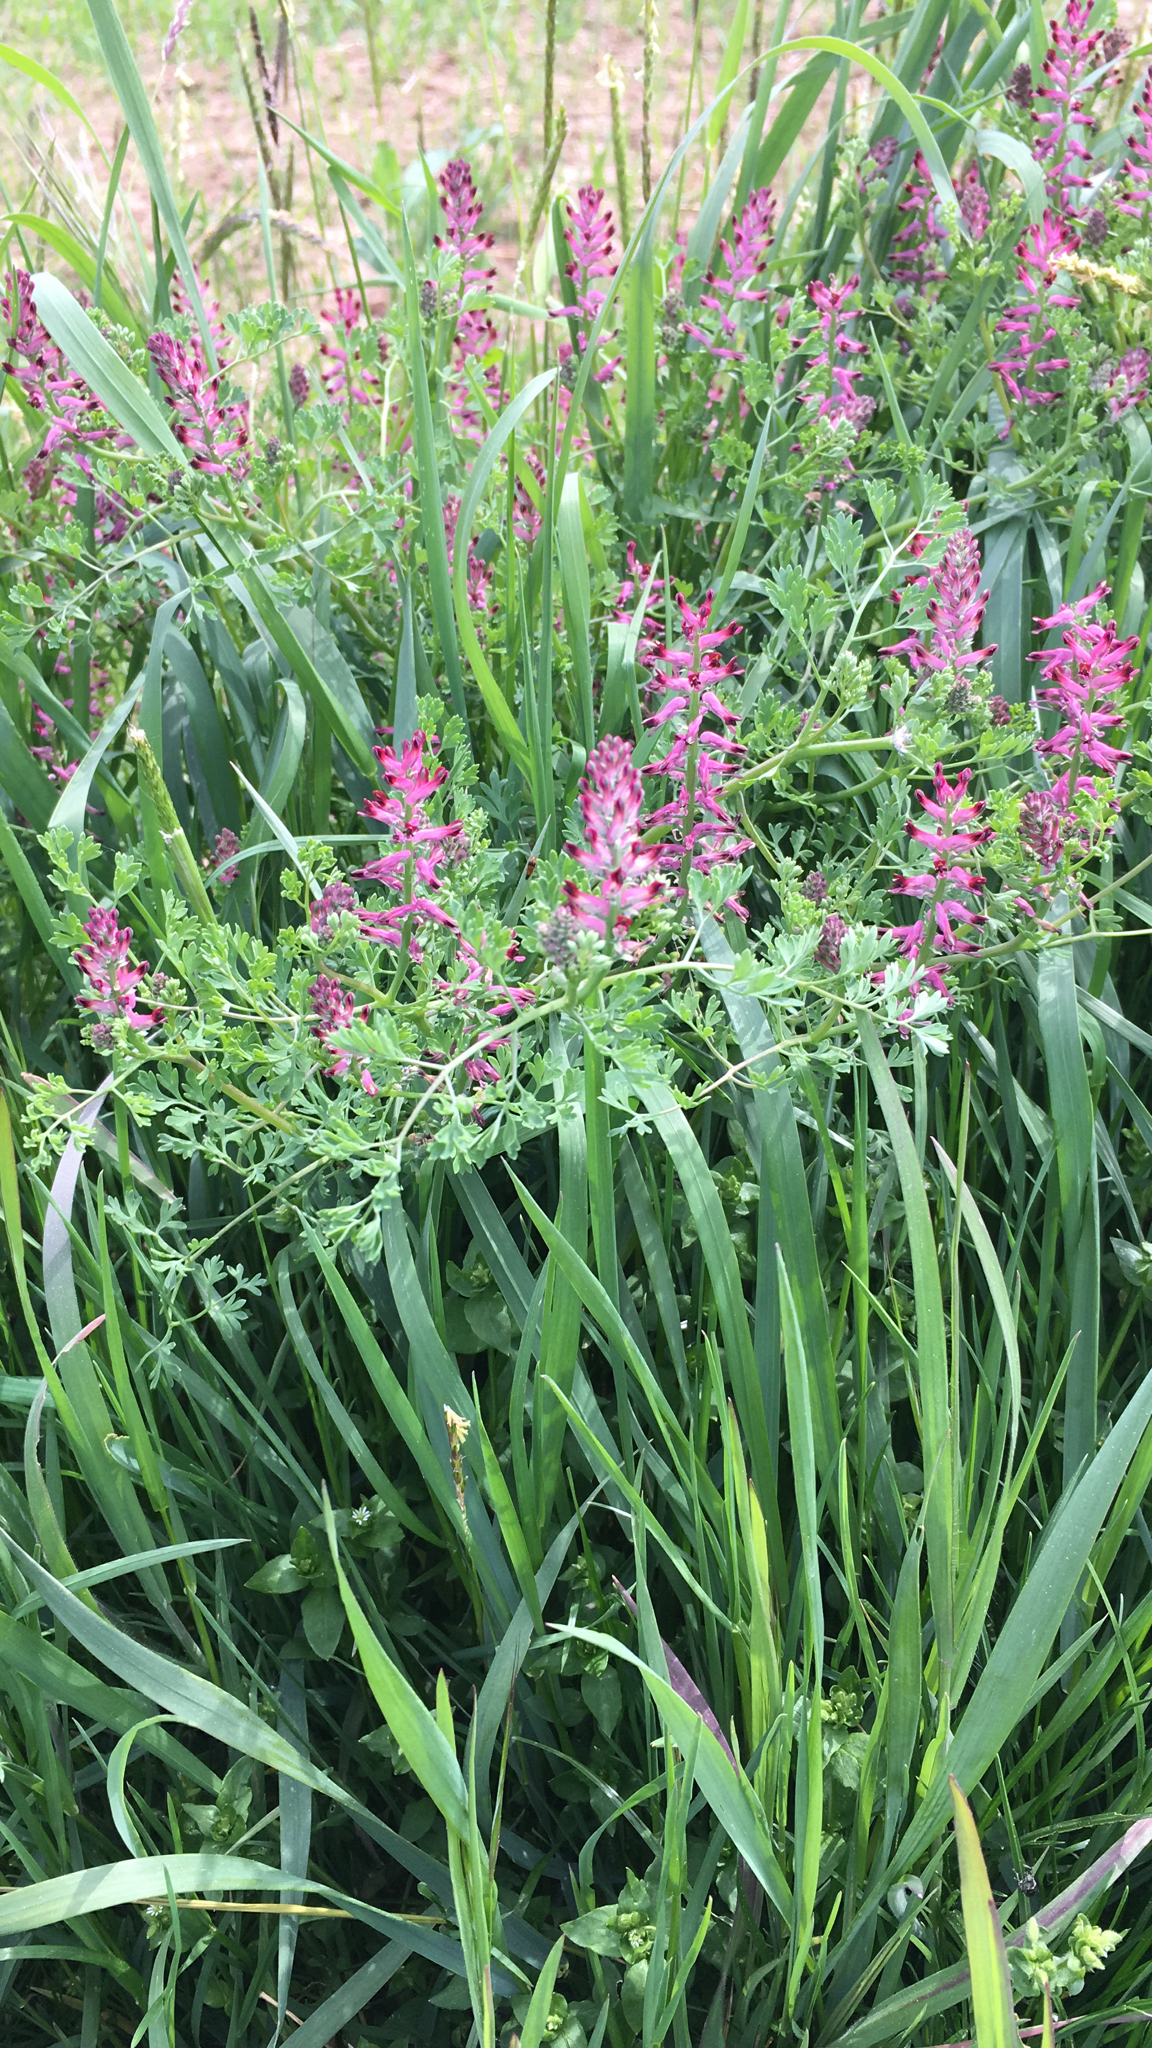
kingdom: Plantae
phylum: Tracheophyta
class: Magnoliopsida
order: Ranunculales
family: Papaveraceae
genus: Fumaria
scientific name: Fumaria officinalis
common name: Common fumitory
